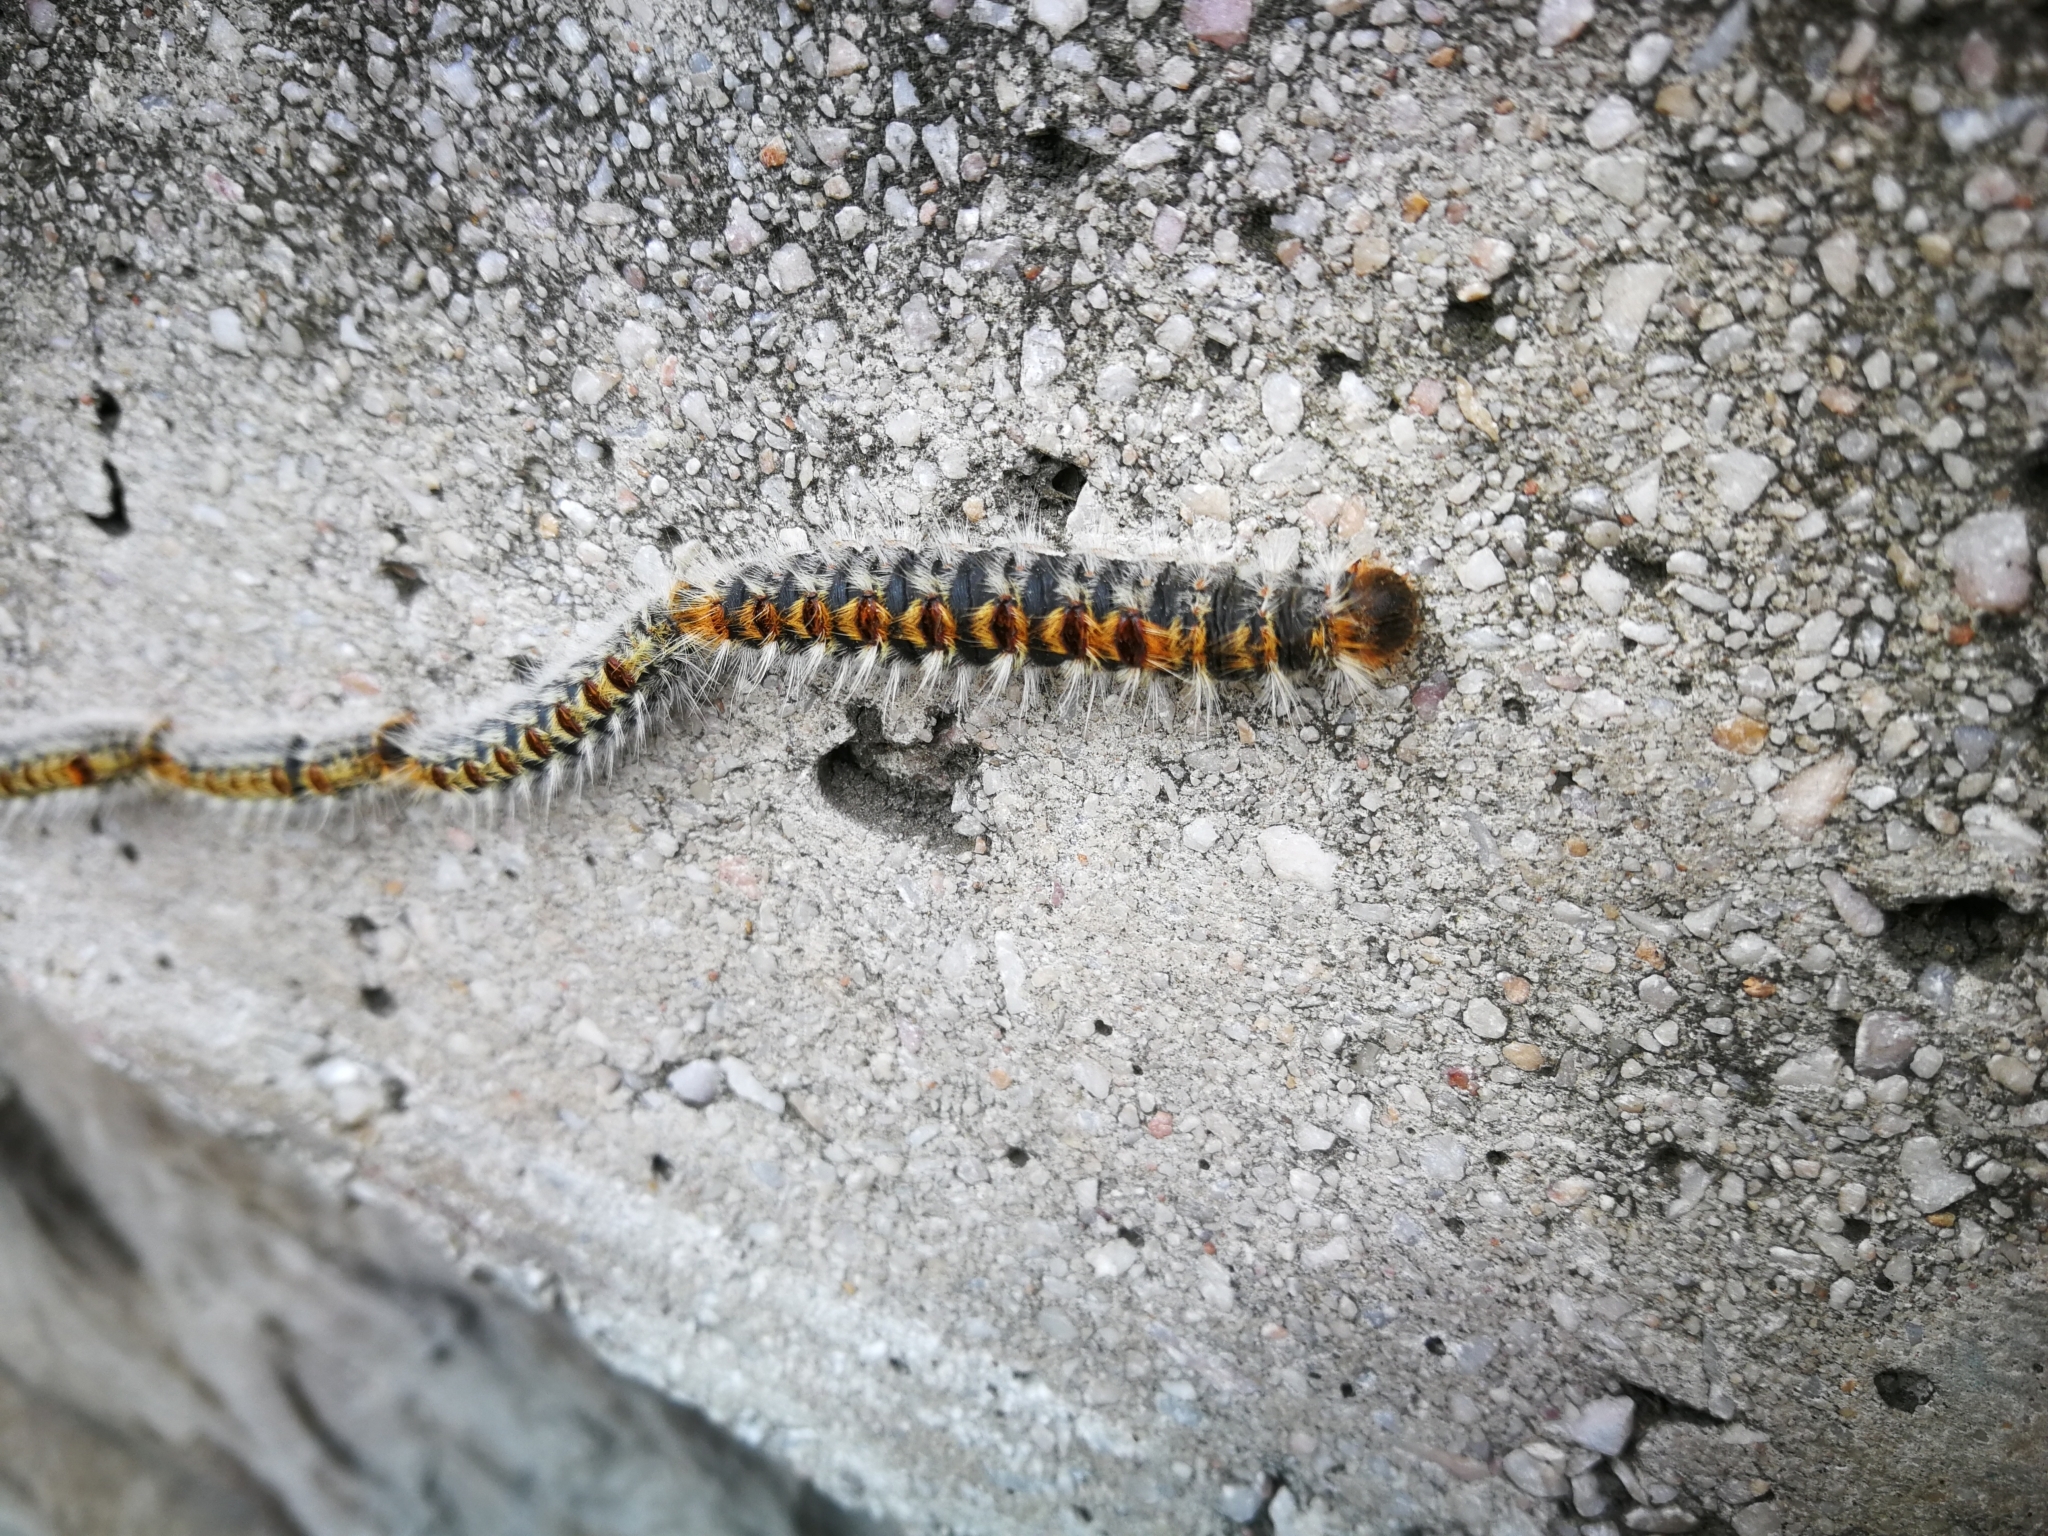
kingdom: Animalia
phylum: Arthropoda
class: Insecta
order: Lepidoptera
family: Notodontidae
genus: Thaumetopoea
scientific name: Thaumetopoea pityocampa
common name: Pine processionary
